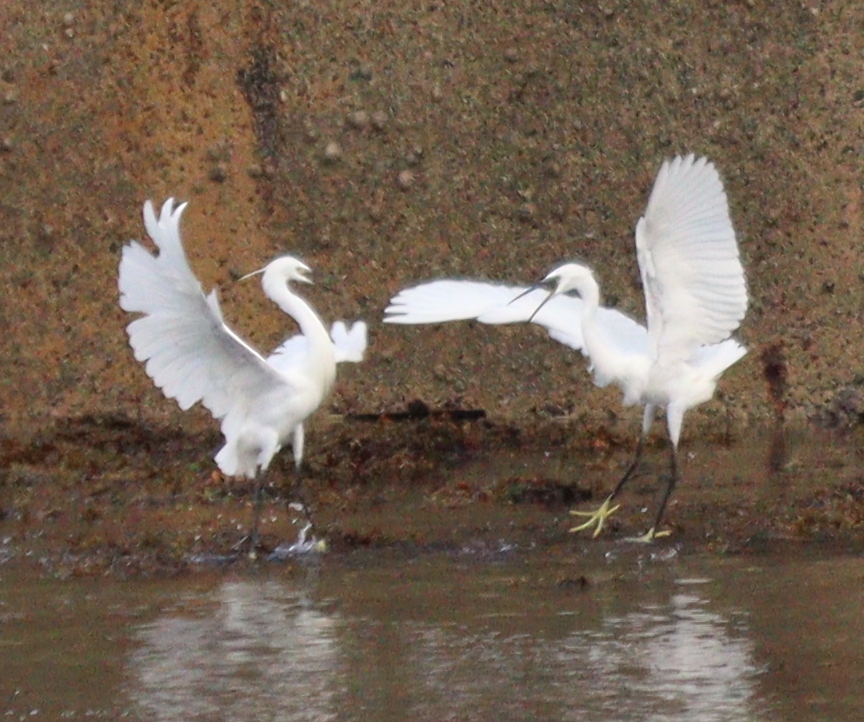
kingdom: Animalia
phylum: Chordata
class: Aves
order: Pelecaniformes
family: Ardeidae
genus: Egretta
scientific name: Egretta garzetta
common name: Little egret
